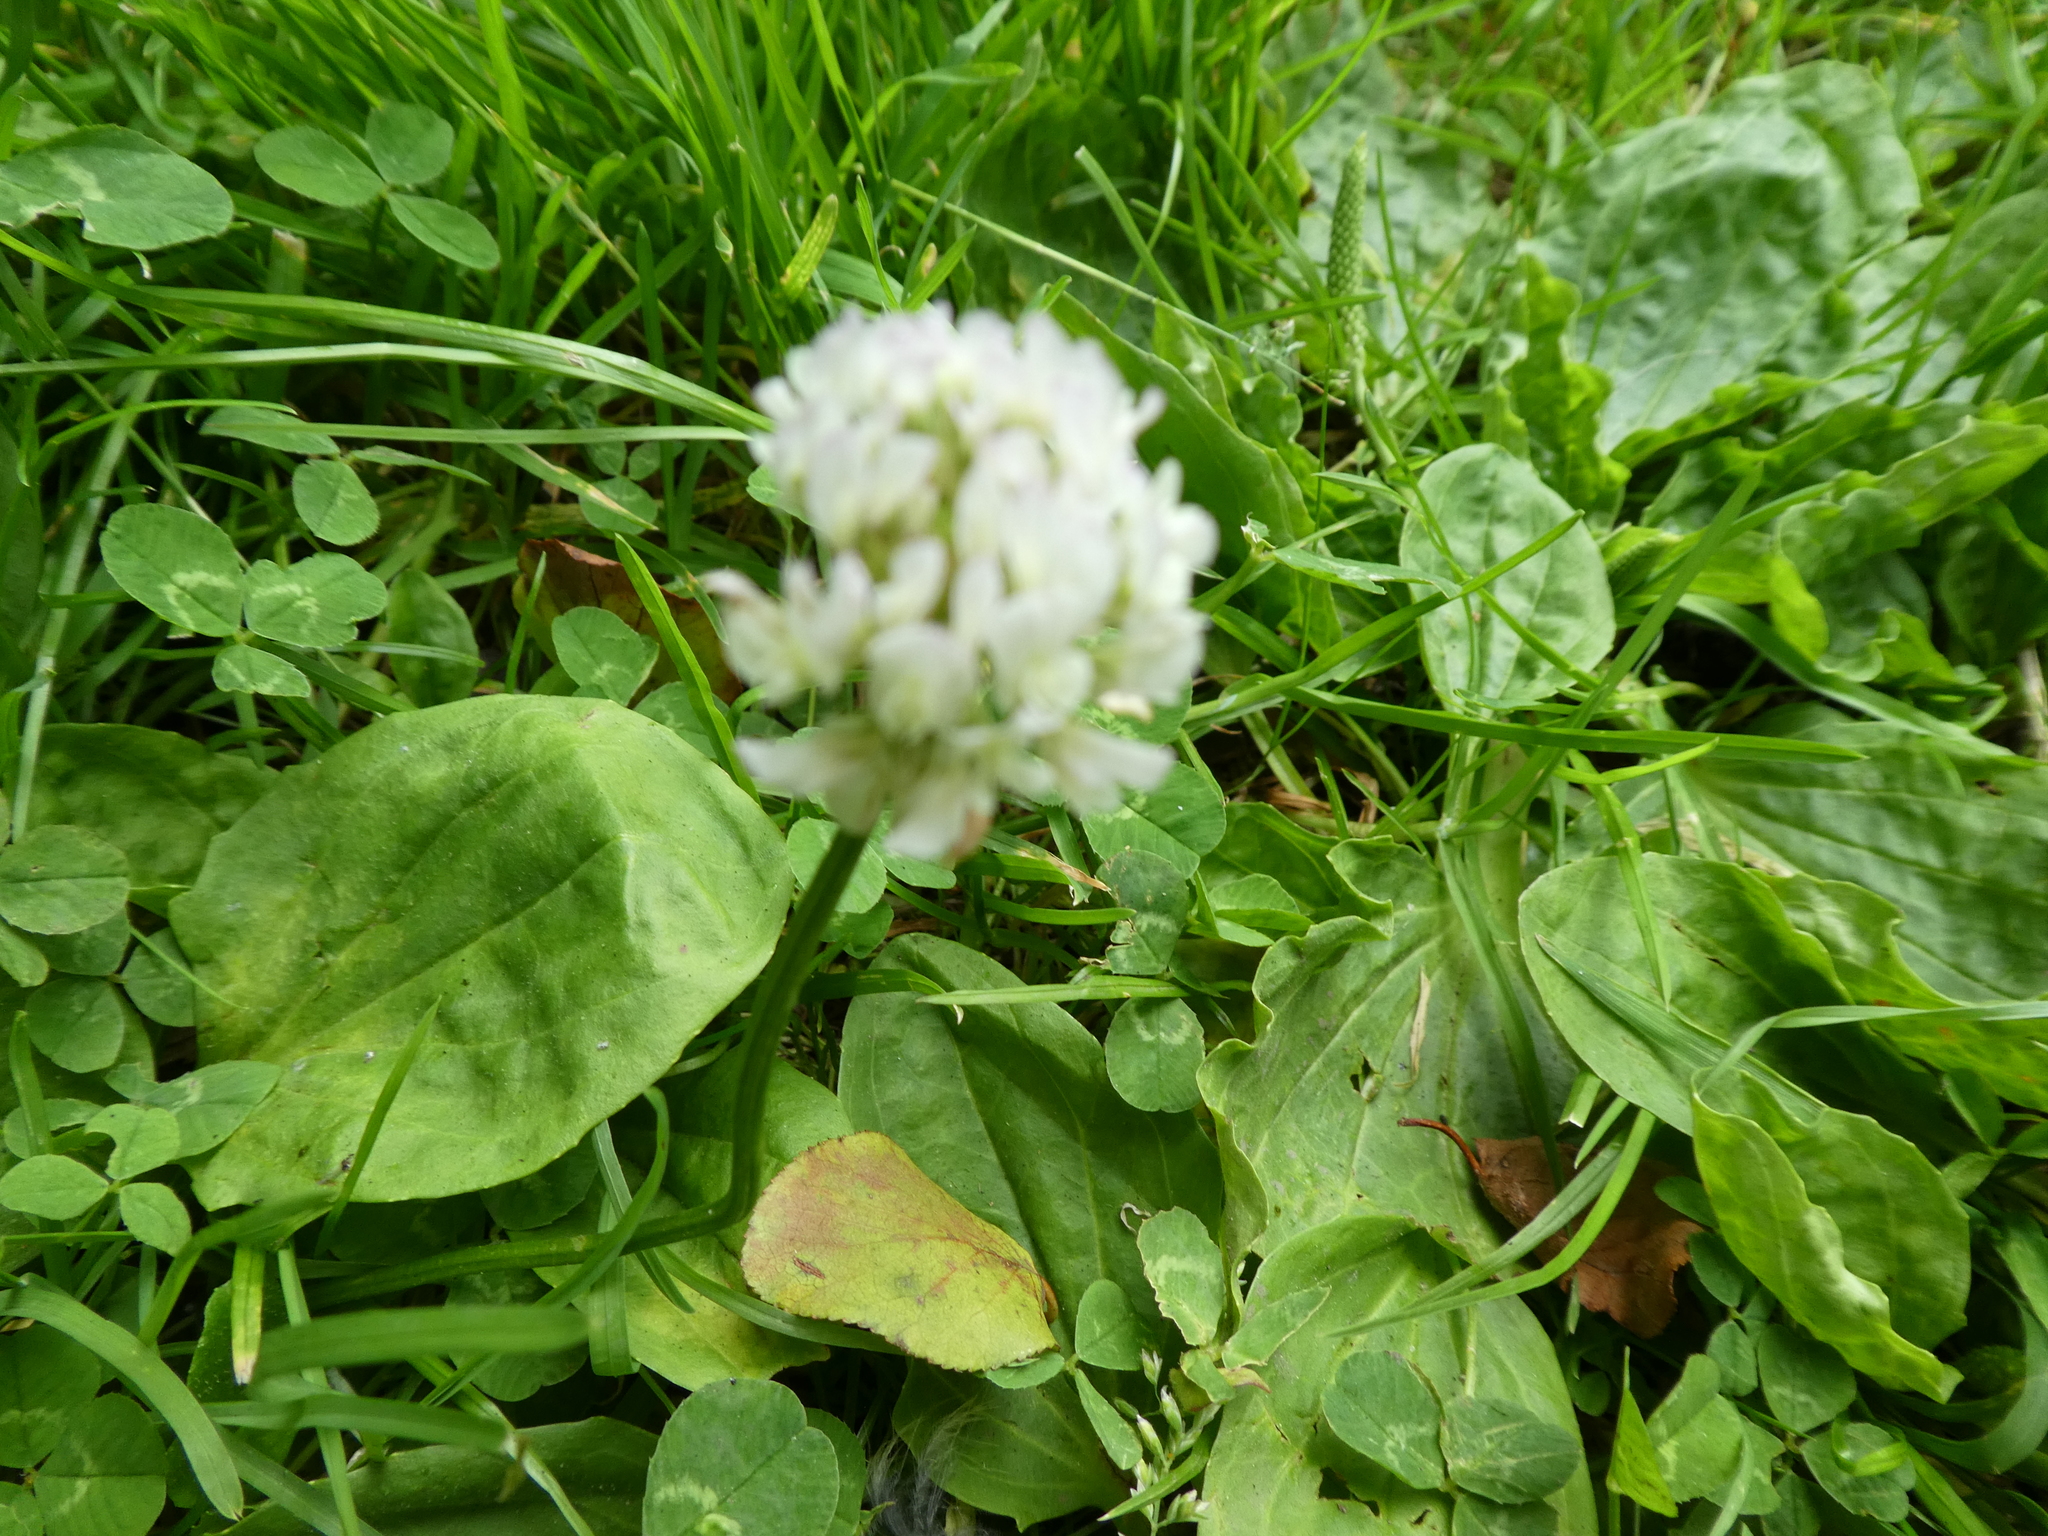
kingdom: Plantae
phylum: Tracheophyta
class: Magnoliopsida
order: Fabales
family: Fabaceae
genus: Trifolium
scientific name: Trifolium repens
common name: White clover
